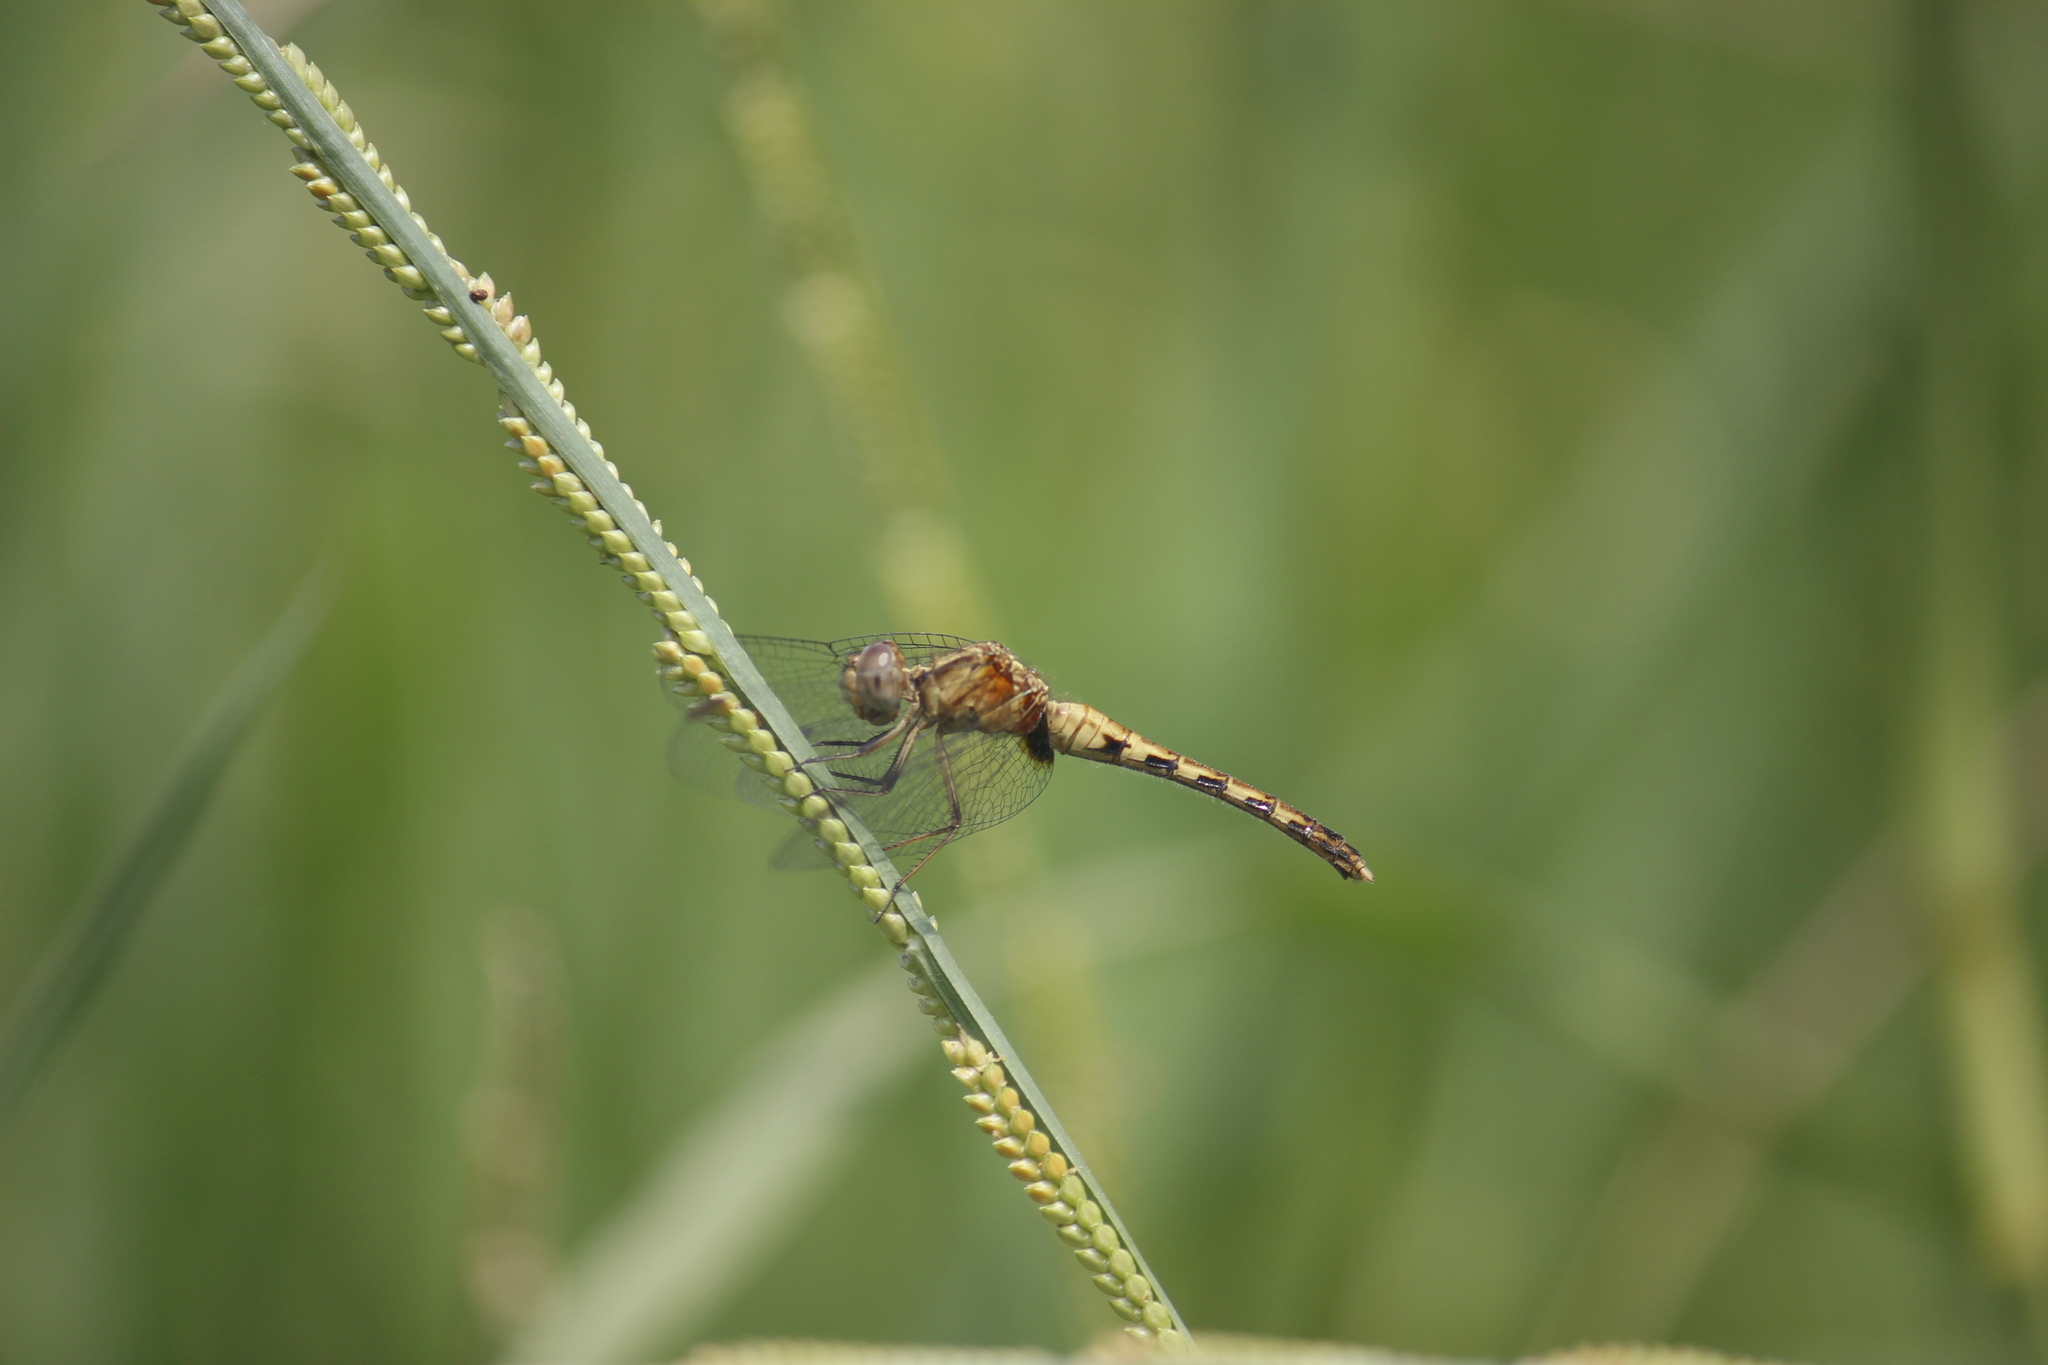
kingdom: Animalia
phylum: Arthropoda
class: Insecta
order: Odonata
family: Libellulidae
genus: Erythrodiplax
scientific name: Erythrodiplax cleopatra
